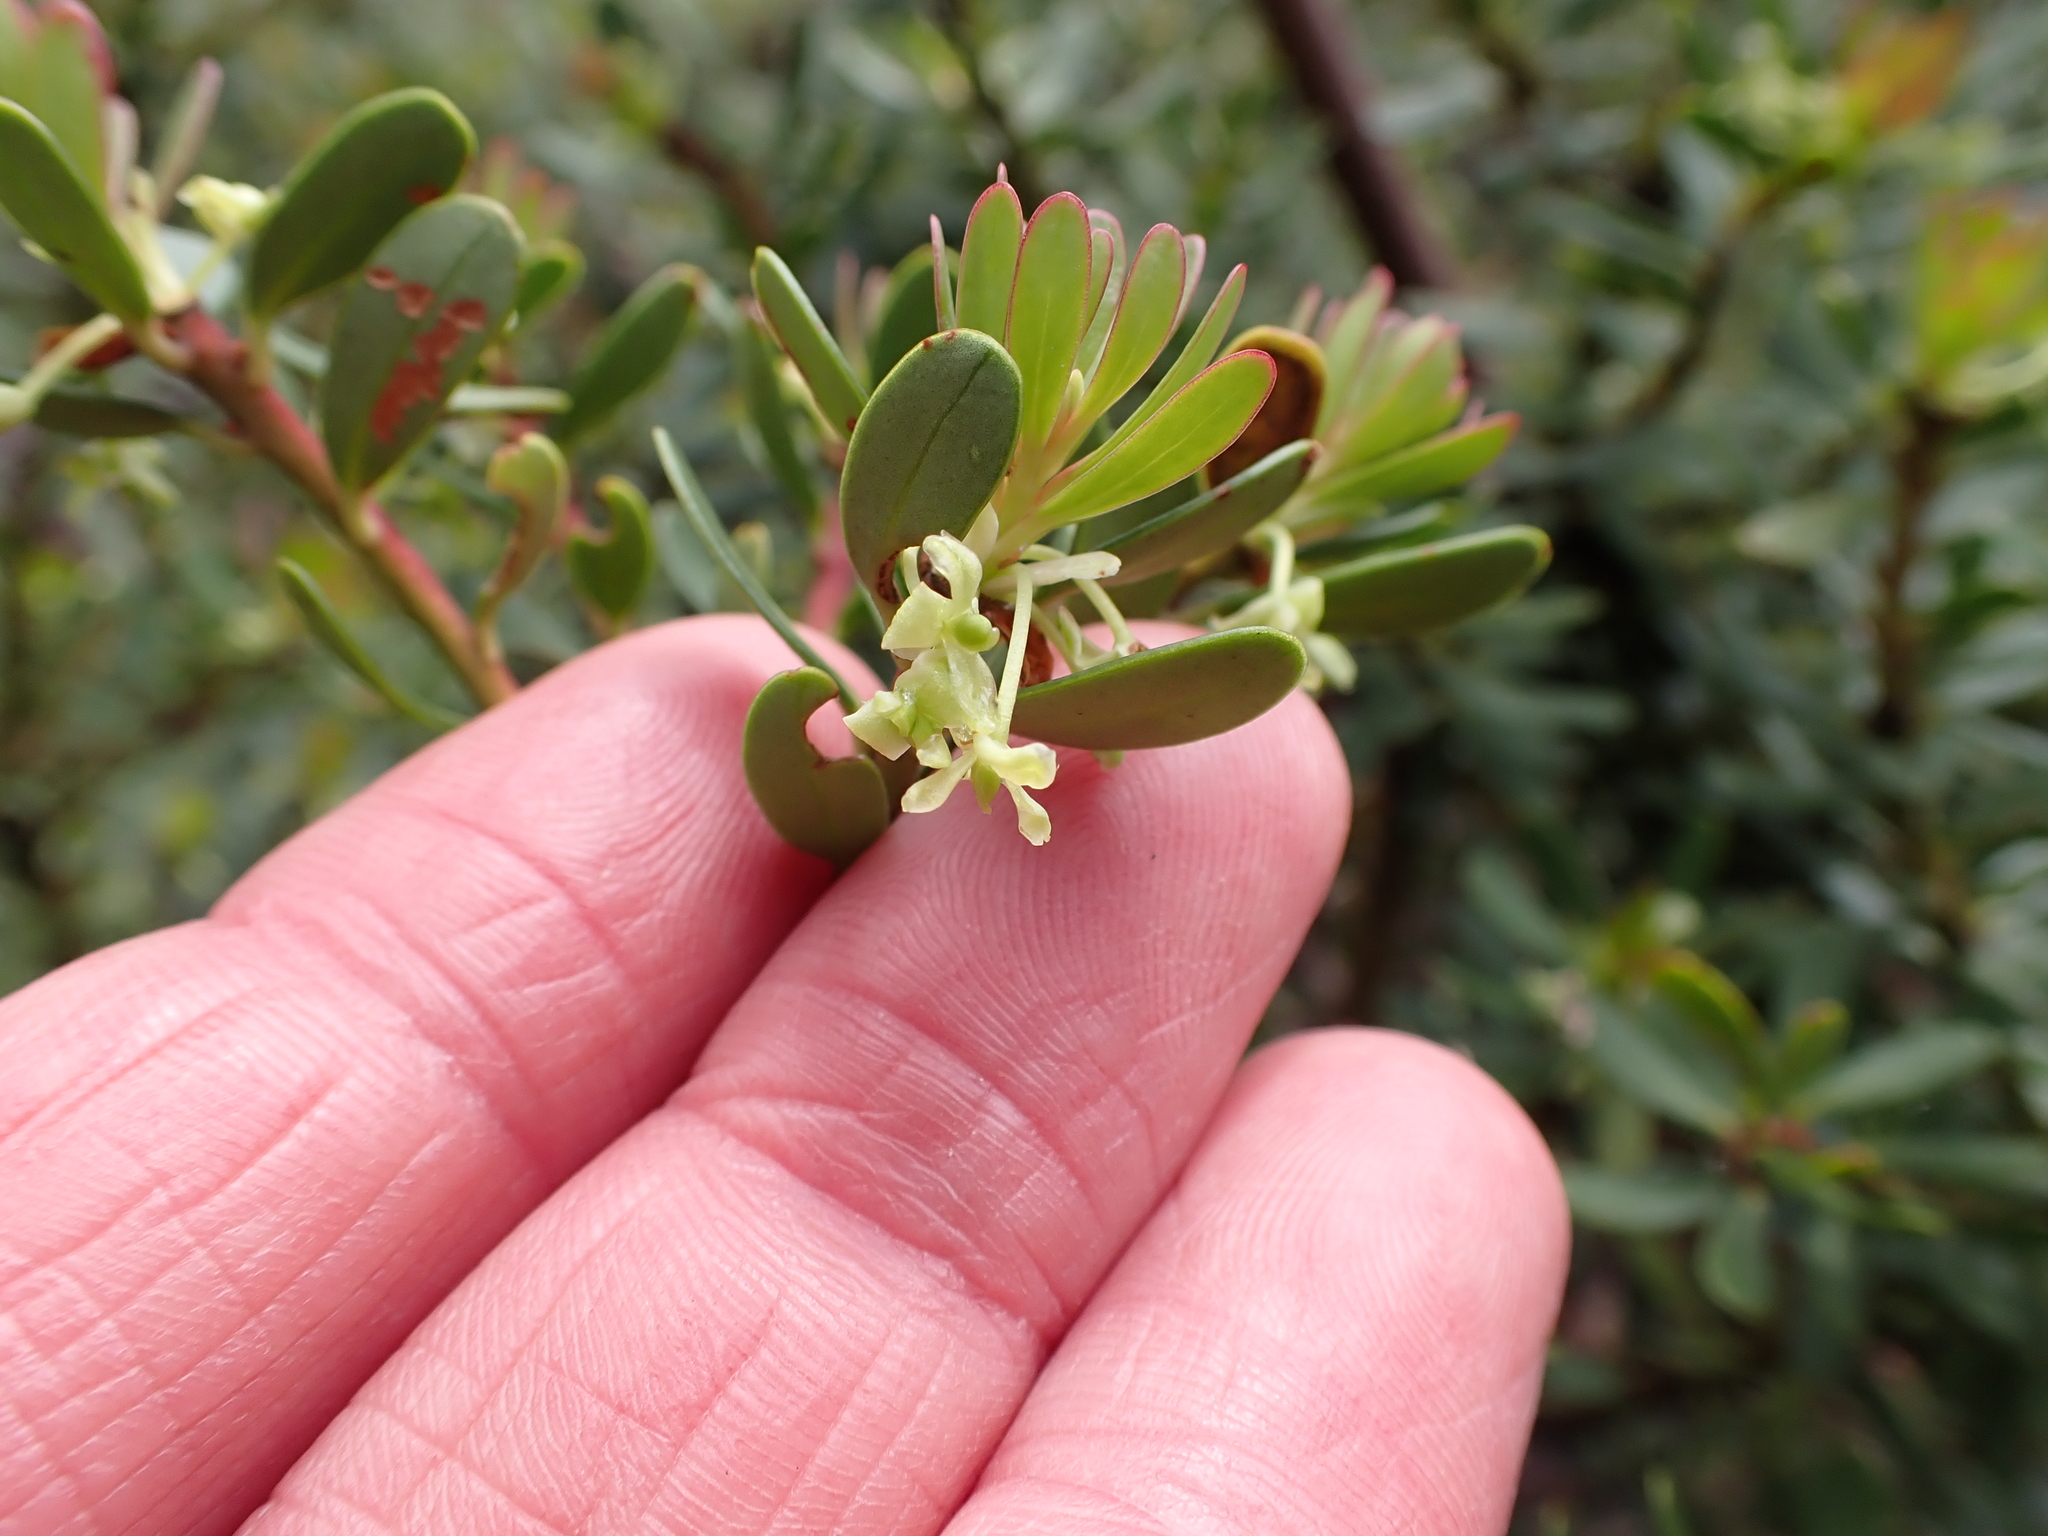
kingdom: Plantae
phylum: Tracheophyta
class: Magnoliopsida
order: Canellales
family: Winteraceae
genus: Drimys
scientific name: Drimys vickeriana
